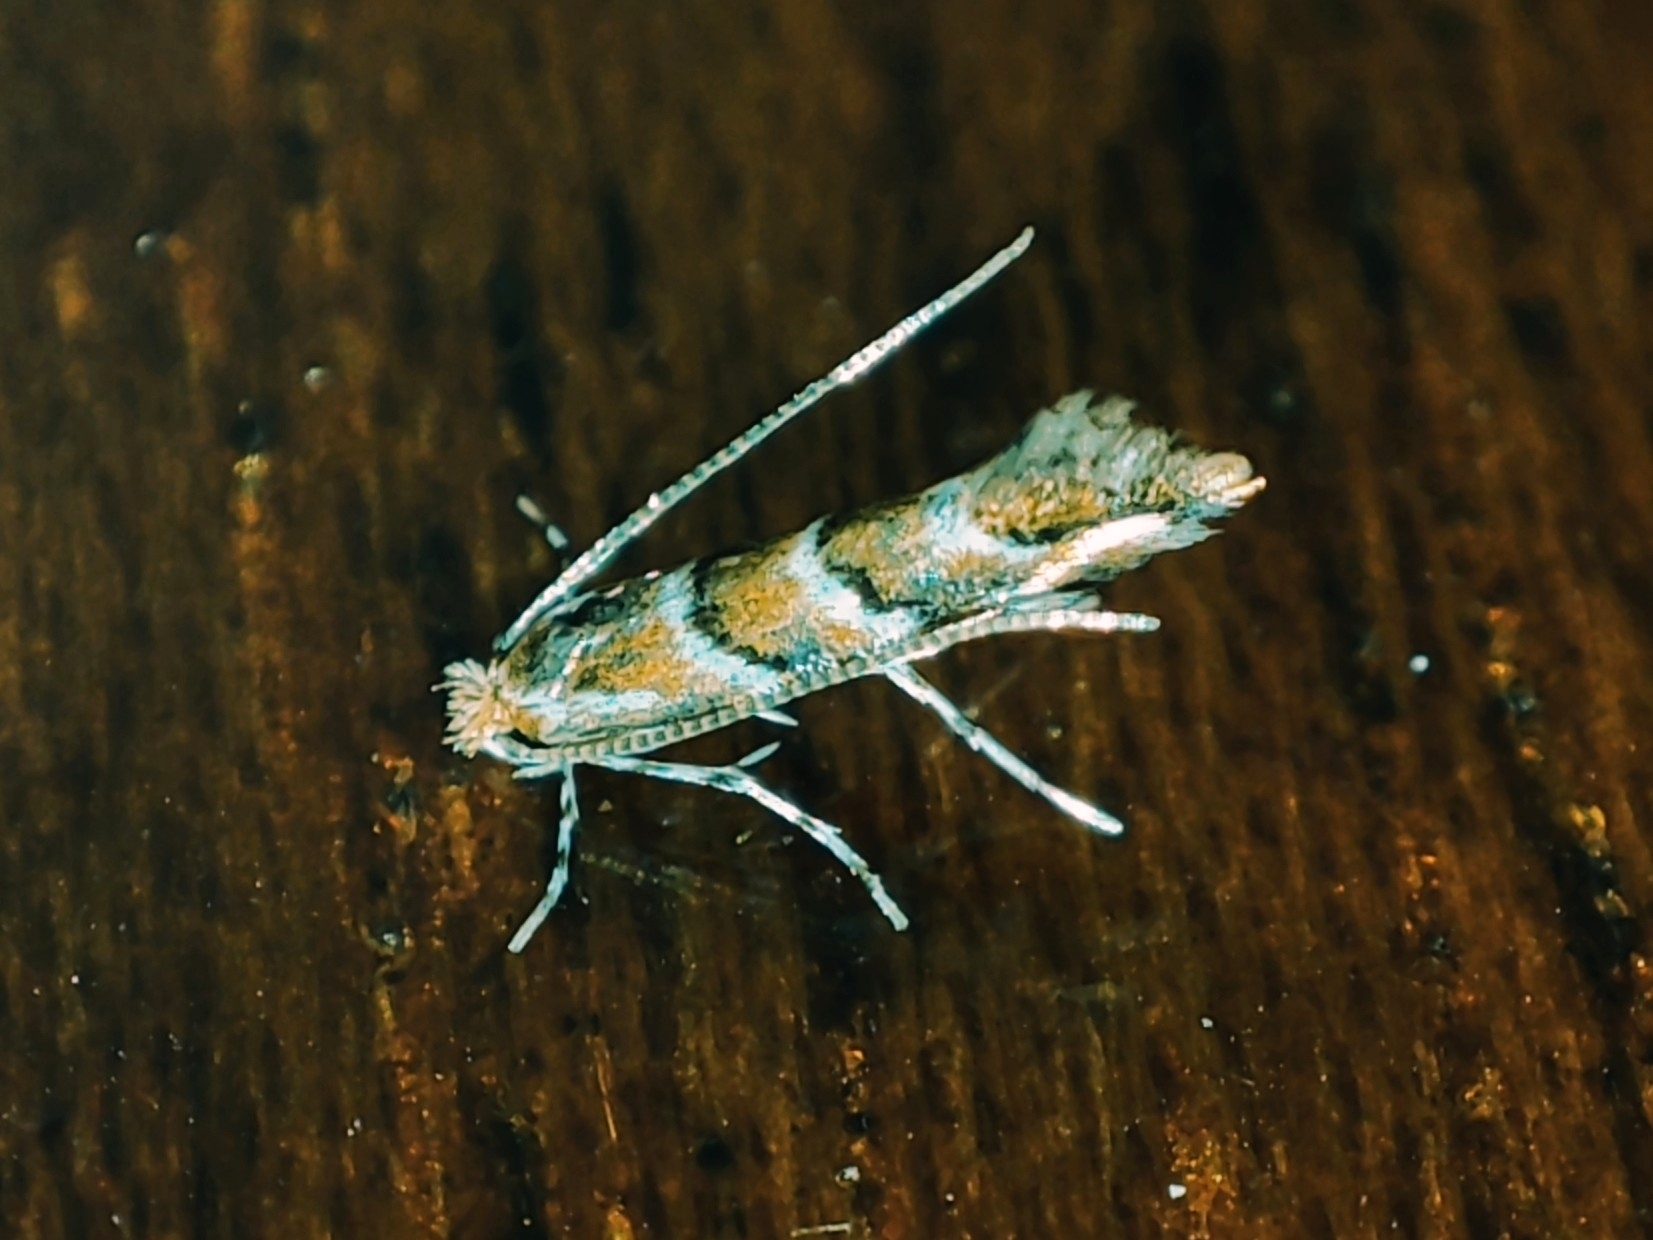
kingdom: Animalia
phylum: Arthropoda
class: Insecta
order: Lepidoptera
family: Gracillariidae
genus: Cameraria
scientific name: Cameraria ohridella
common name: Horse-chestnut leaf-miner
